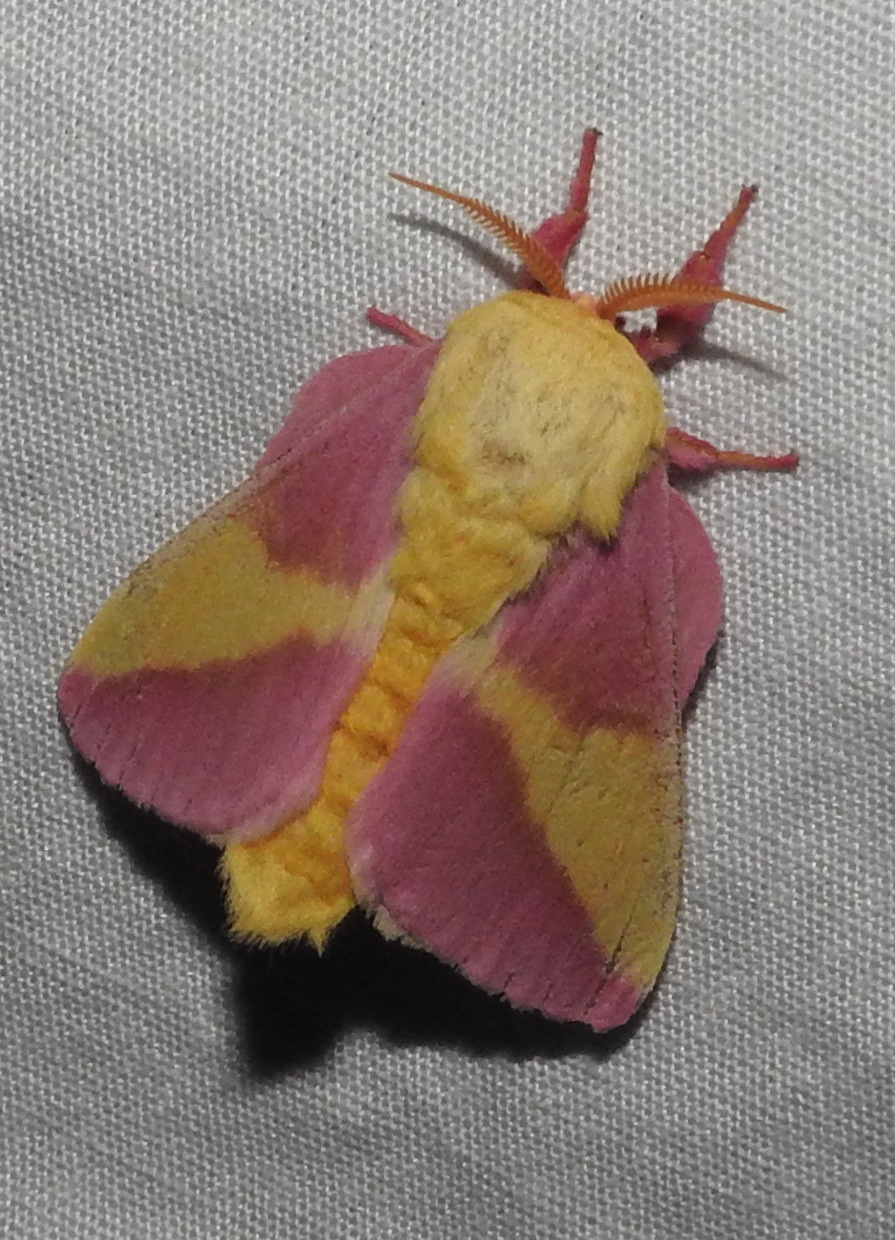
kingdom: Animalia
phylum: Arthropoda
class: Insecta
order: Lepidoptera
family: Saturniidae
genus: Dryocampa
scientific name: Dryocampa rubicunda
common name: Rosy maple moth
